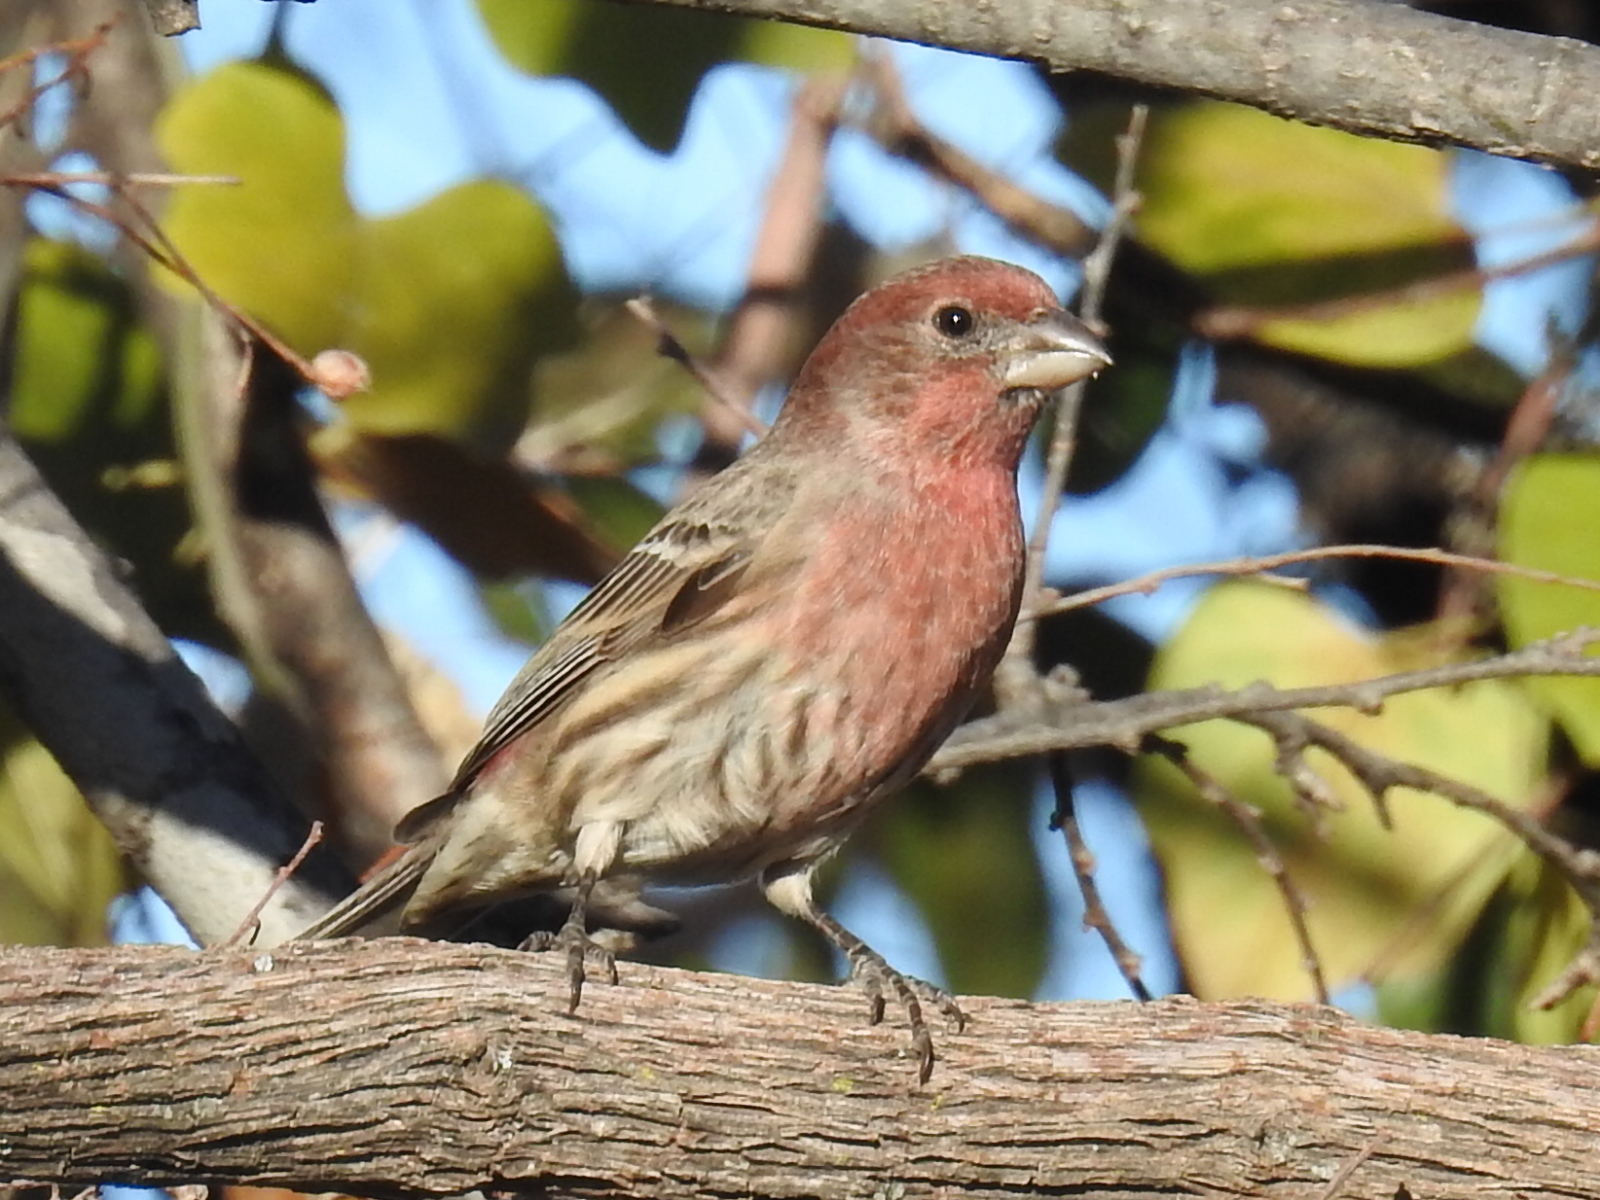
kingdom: Animalia
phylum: Chordata
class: Aves
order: Passeriformes
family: Fringillidae
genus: Haemorhous
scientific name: Haemorhous mexicanus
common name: House finch
